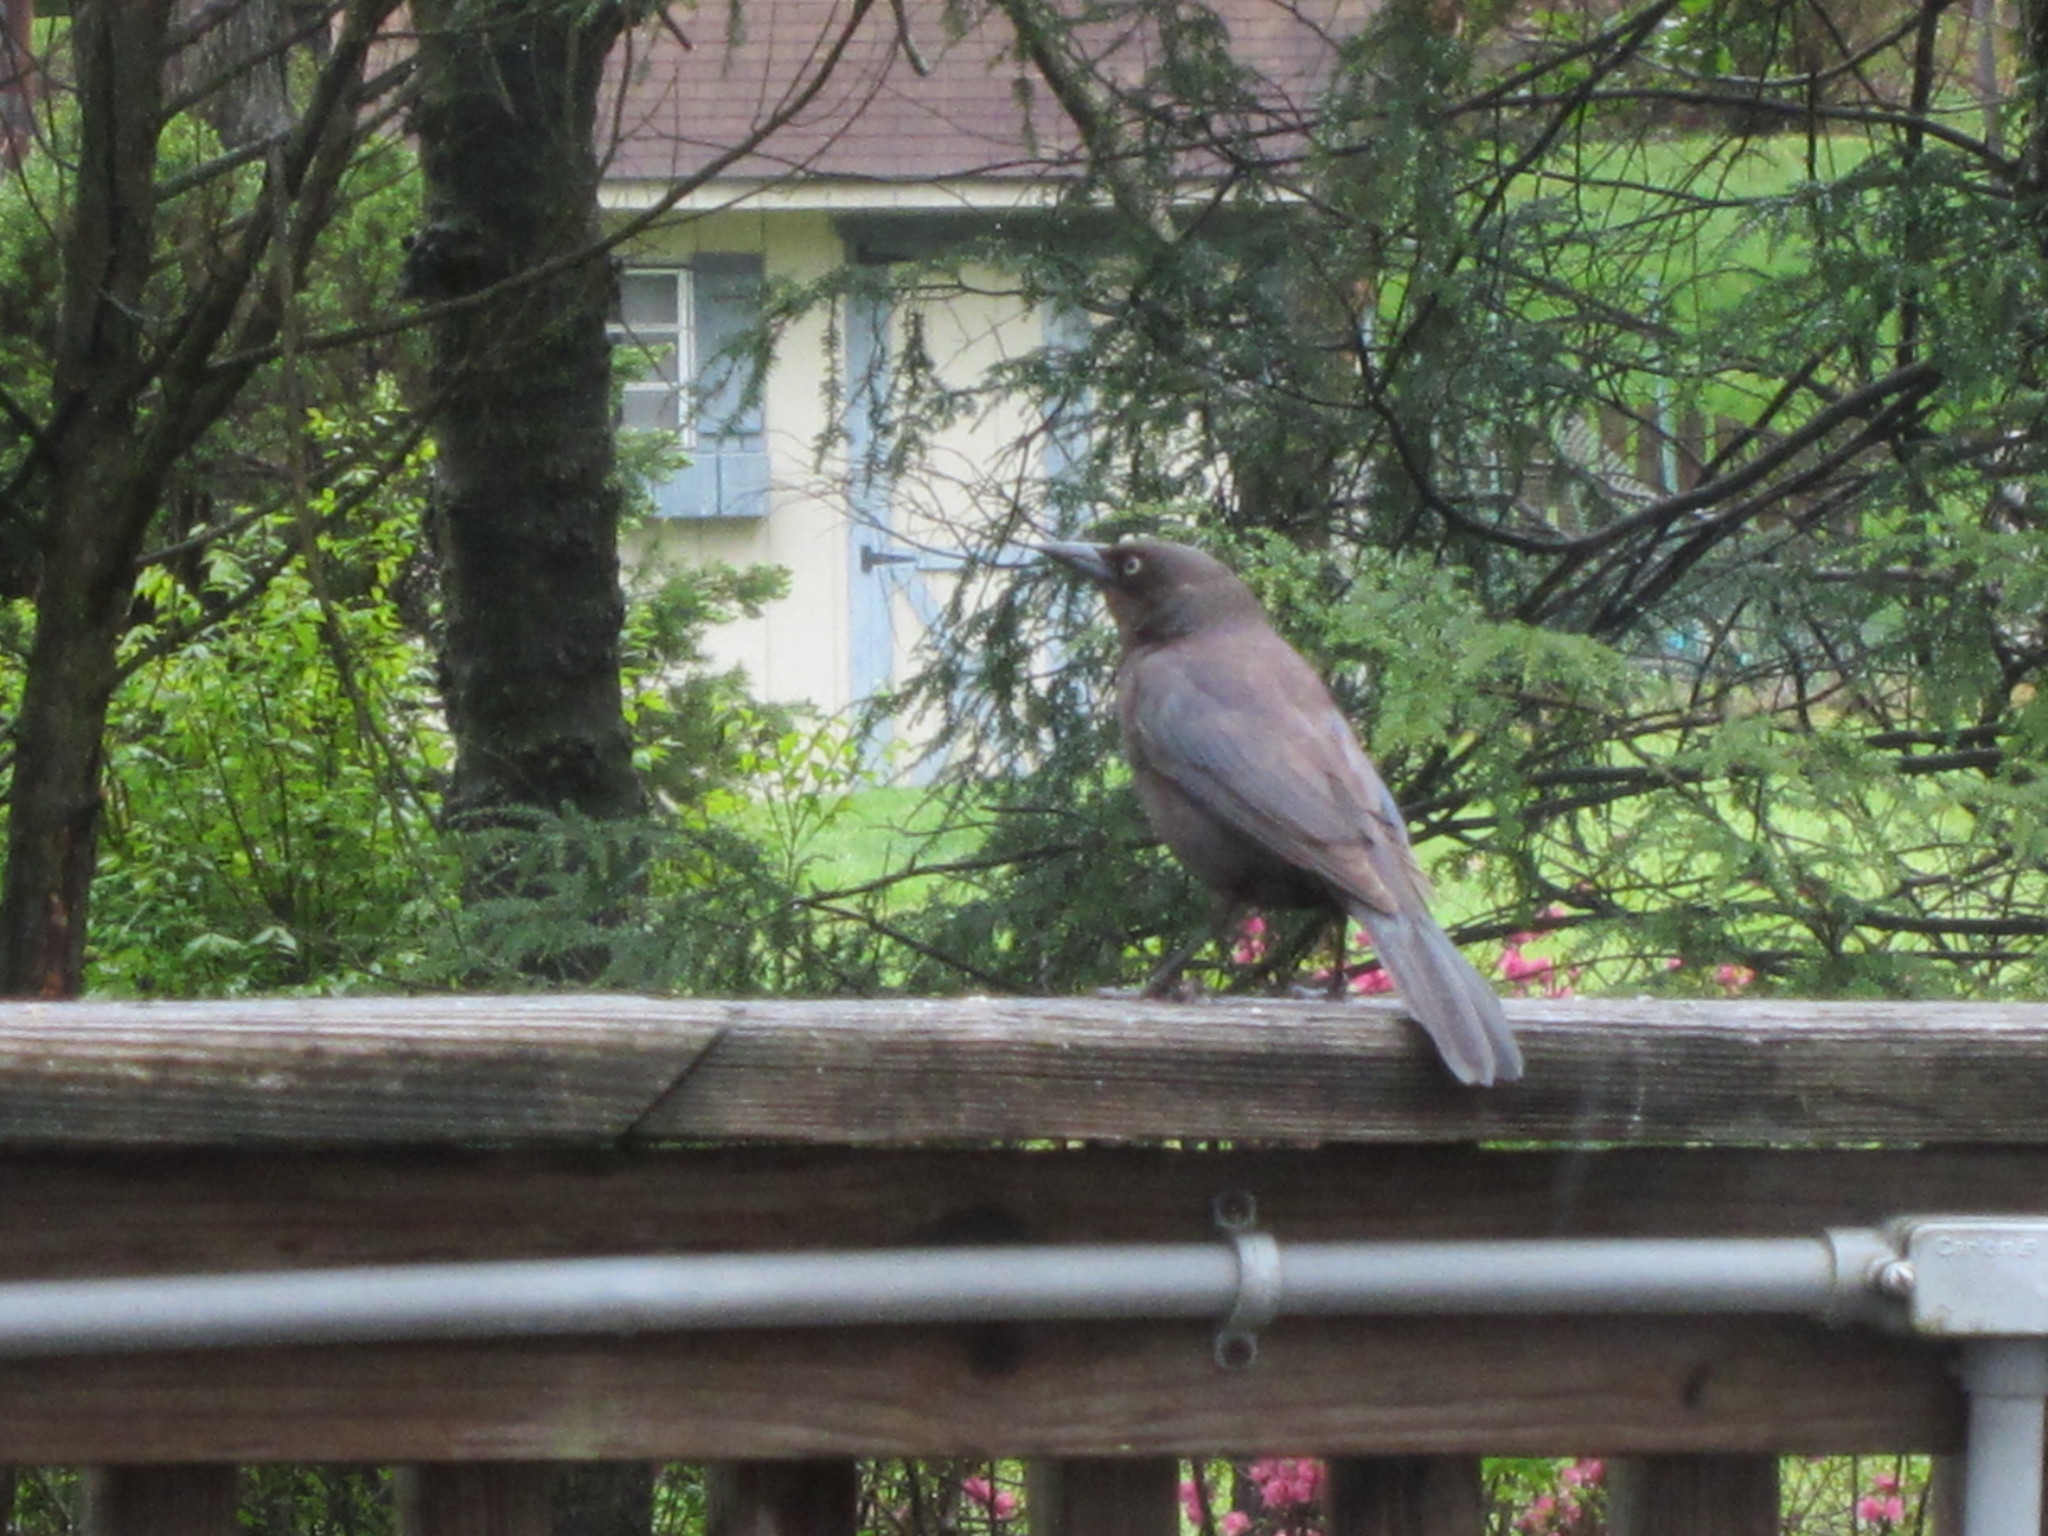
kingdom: Animalia
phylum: Chordata
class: Aves
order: Passeriformes
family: Icteridae
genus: Quiscalus
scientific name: Quiscalus quiscula
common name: Common grackle
